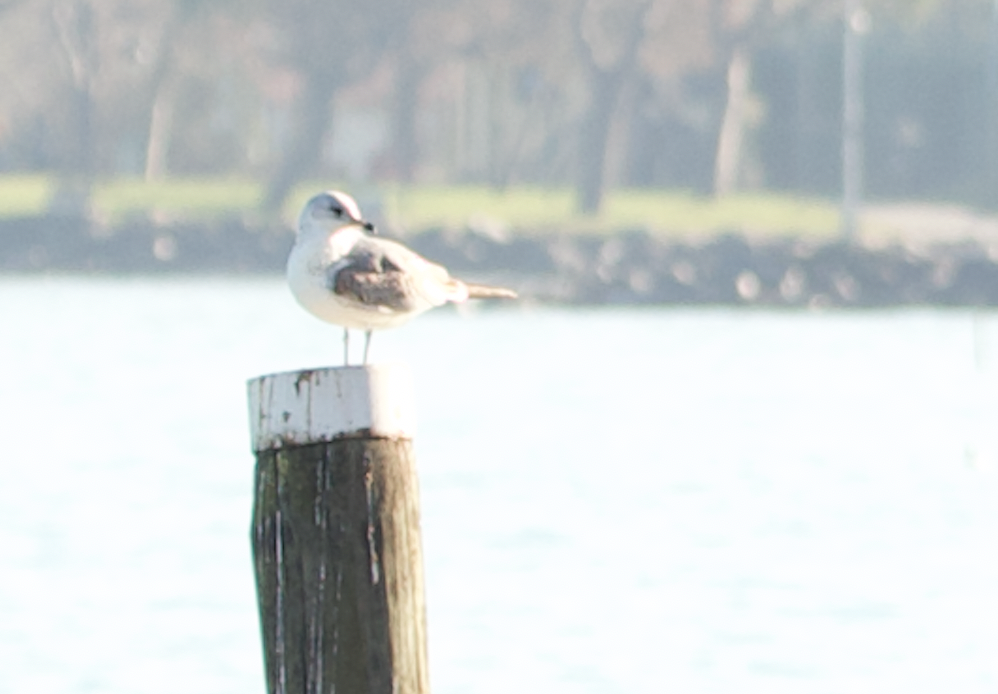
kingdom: Animalia
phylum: Chordata
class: Aves
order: Charadriiformes
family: Laridae
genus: Larus
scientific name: Larus canus
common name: Mew gull
